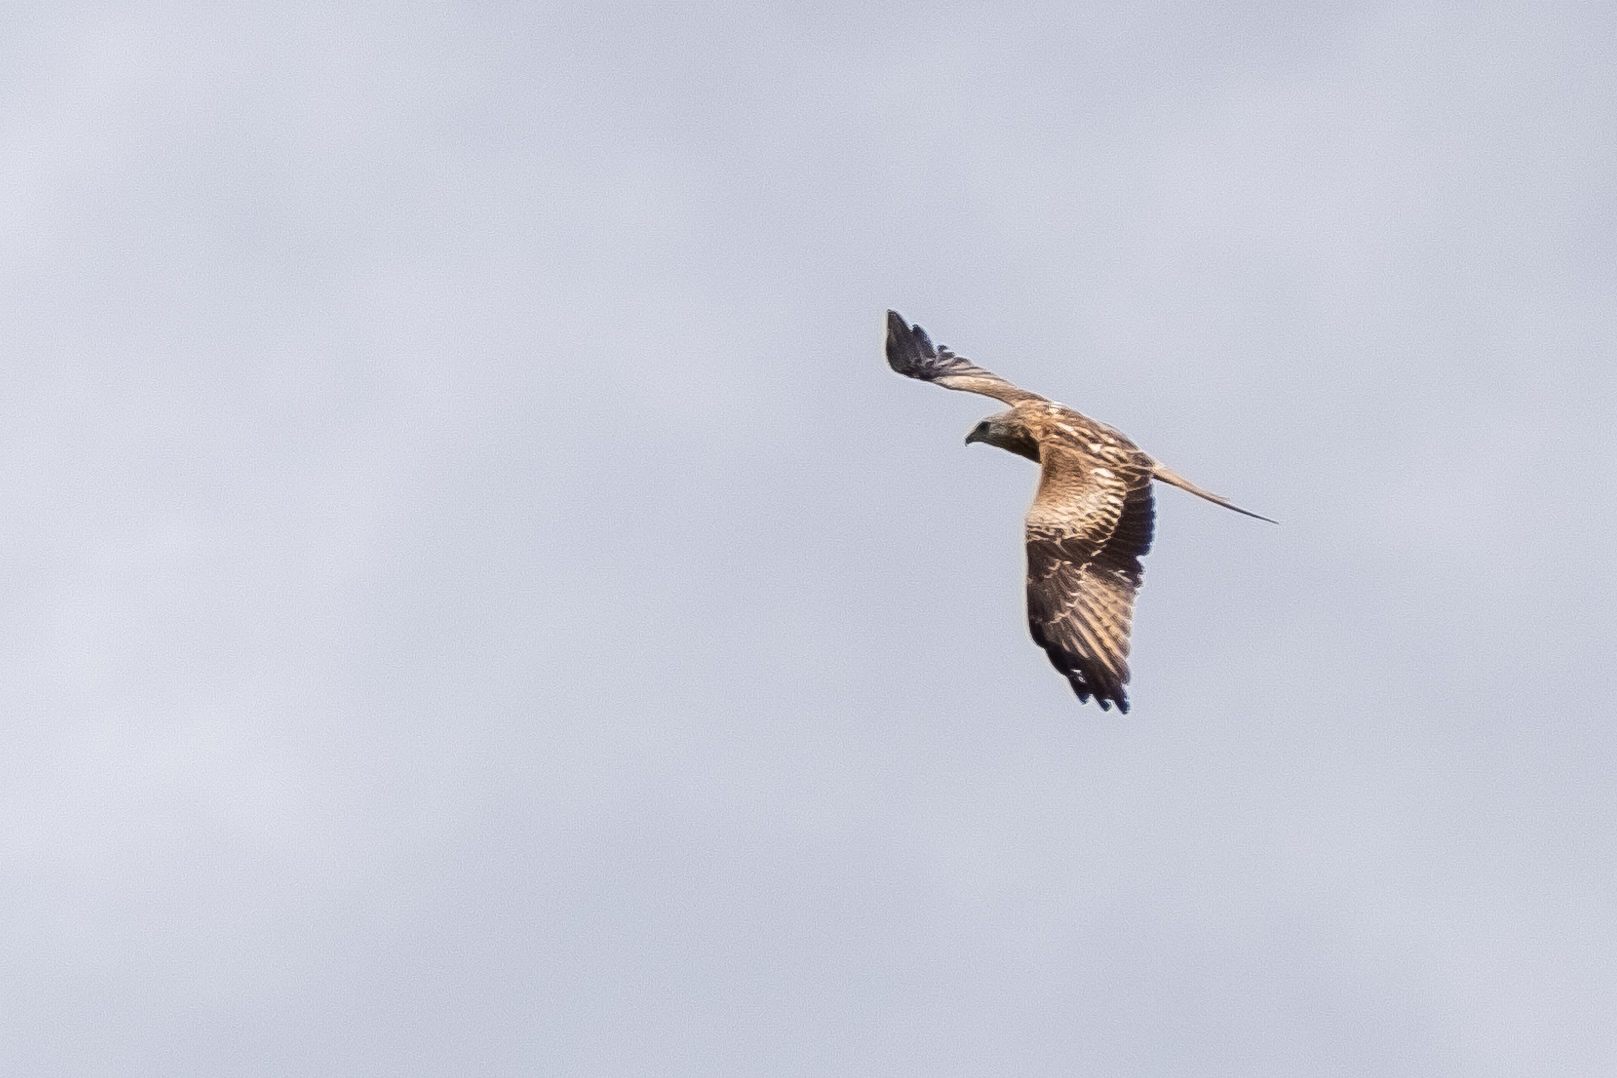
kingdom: Animalia
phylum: Chordata
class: Aves
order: Accipitriformes
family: Accipitridae
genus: Milvus
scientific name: Milvus milvus
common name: Red kite
